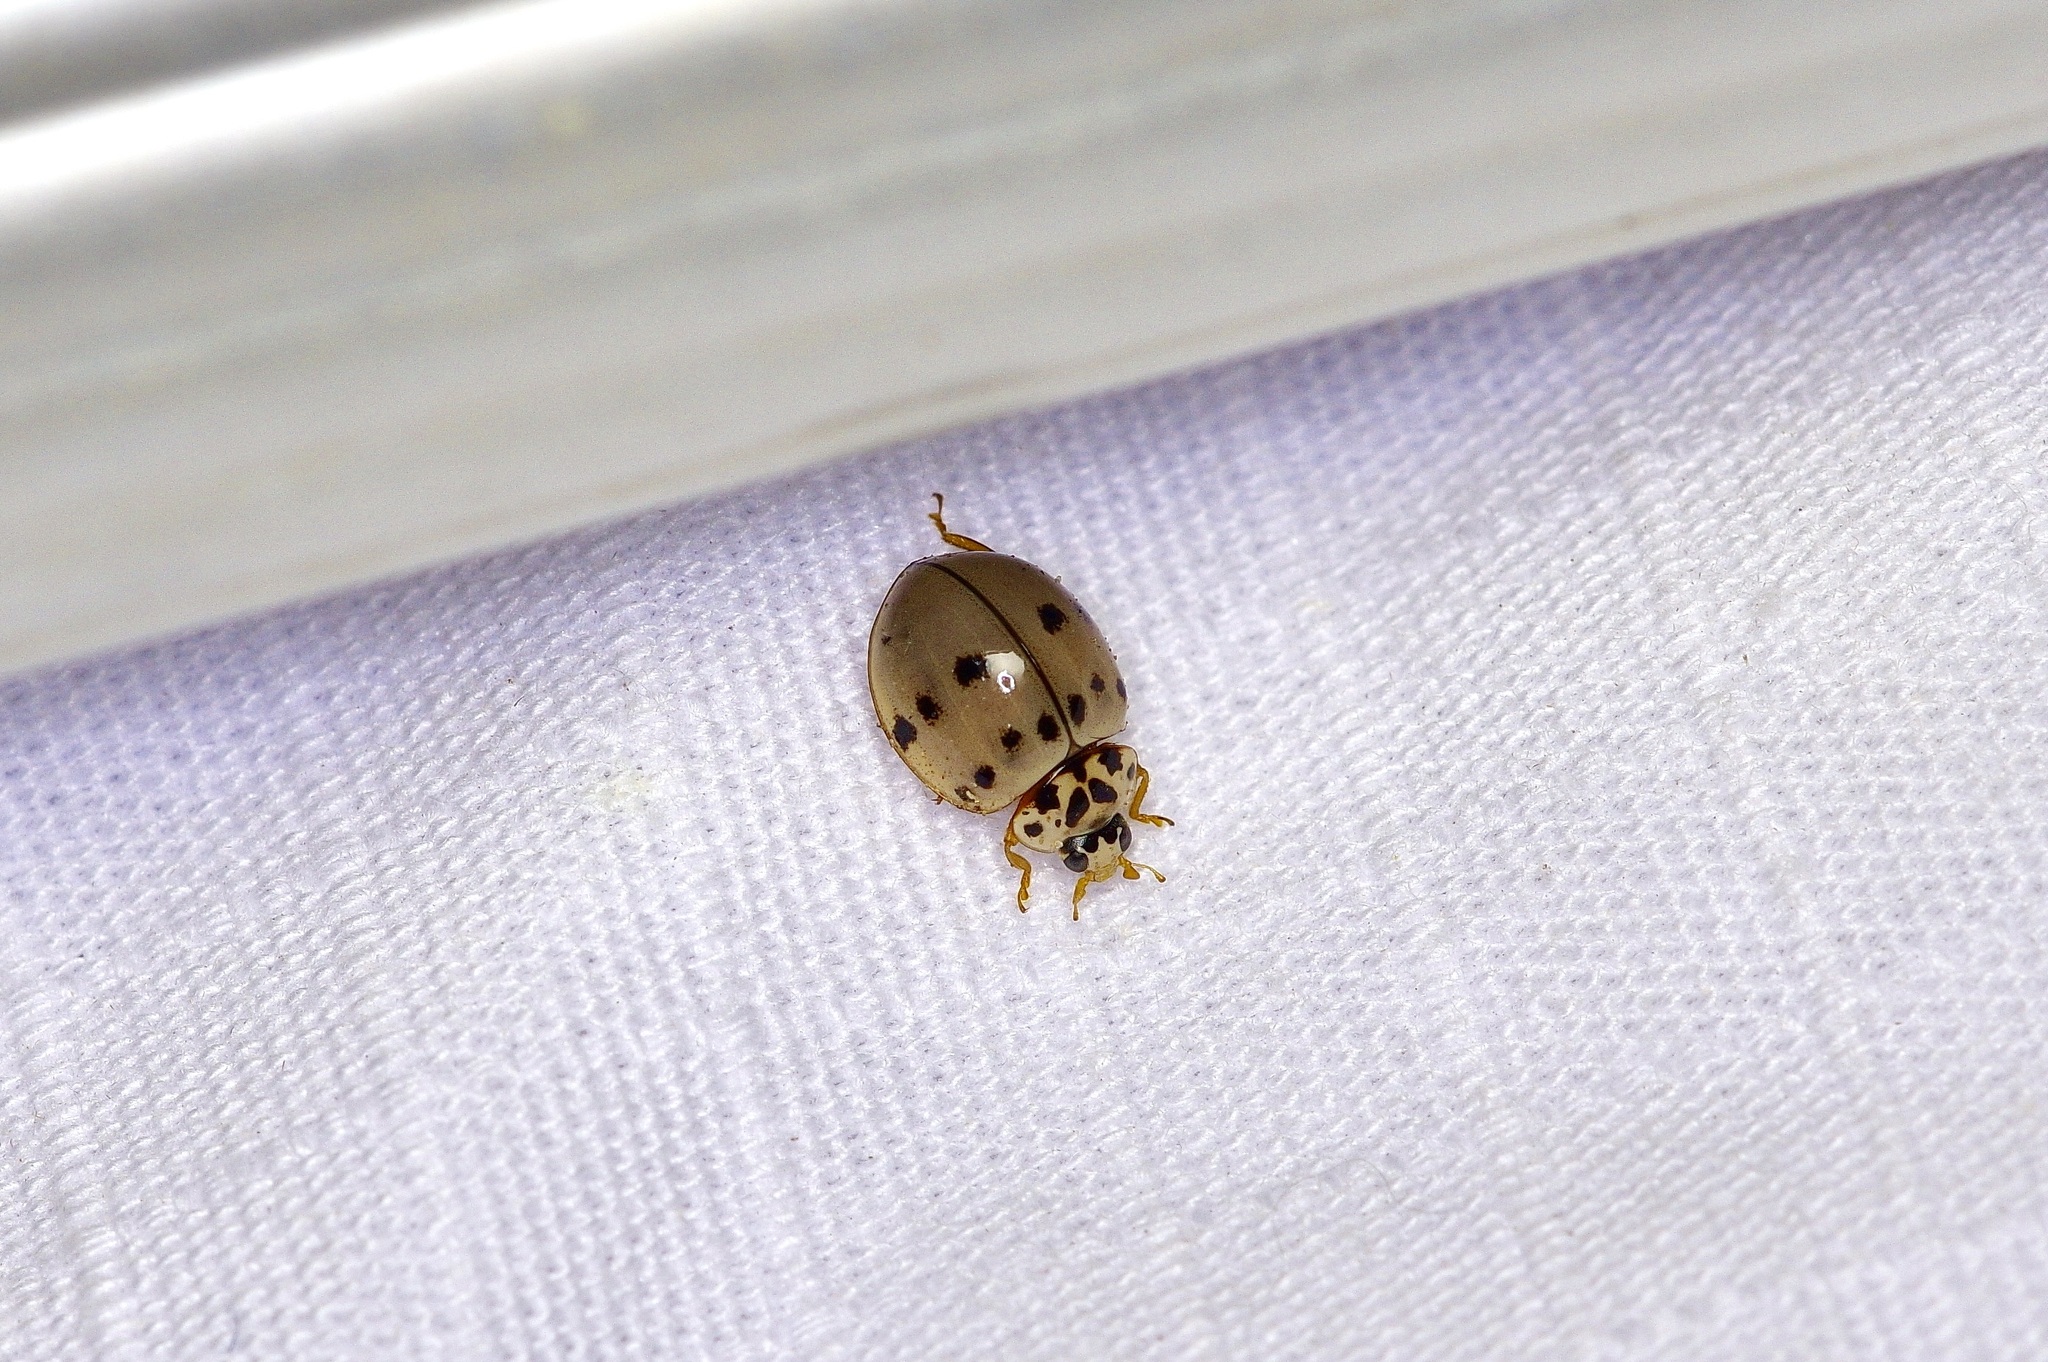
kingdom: Animalia
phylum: Arthropoda
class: Insecta
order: Coleoptera
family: Coccinellidae
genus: Olla
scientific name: Olla v-nigrum
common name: Ashy gray lady beetle
